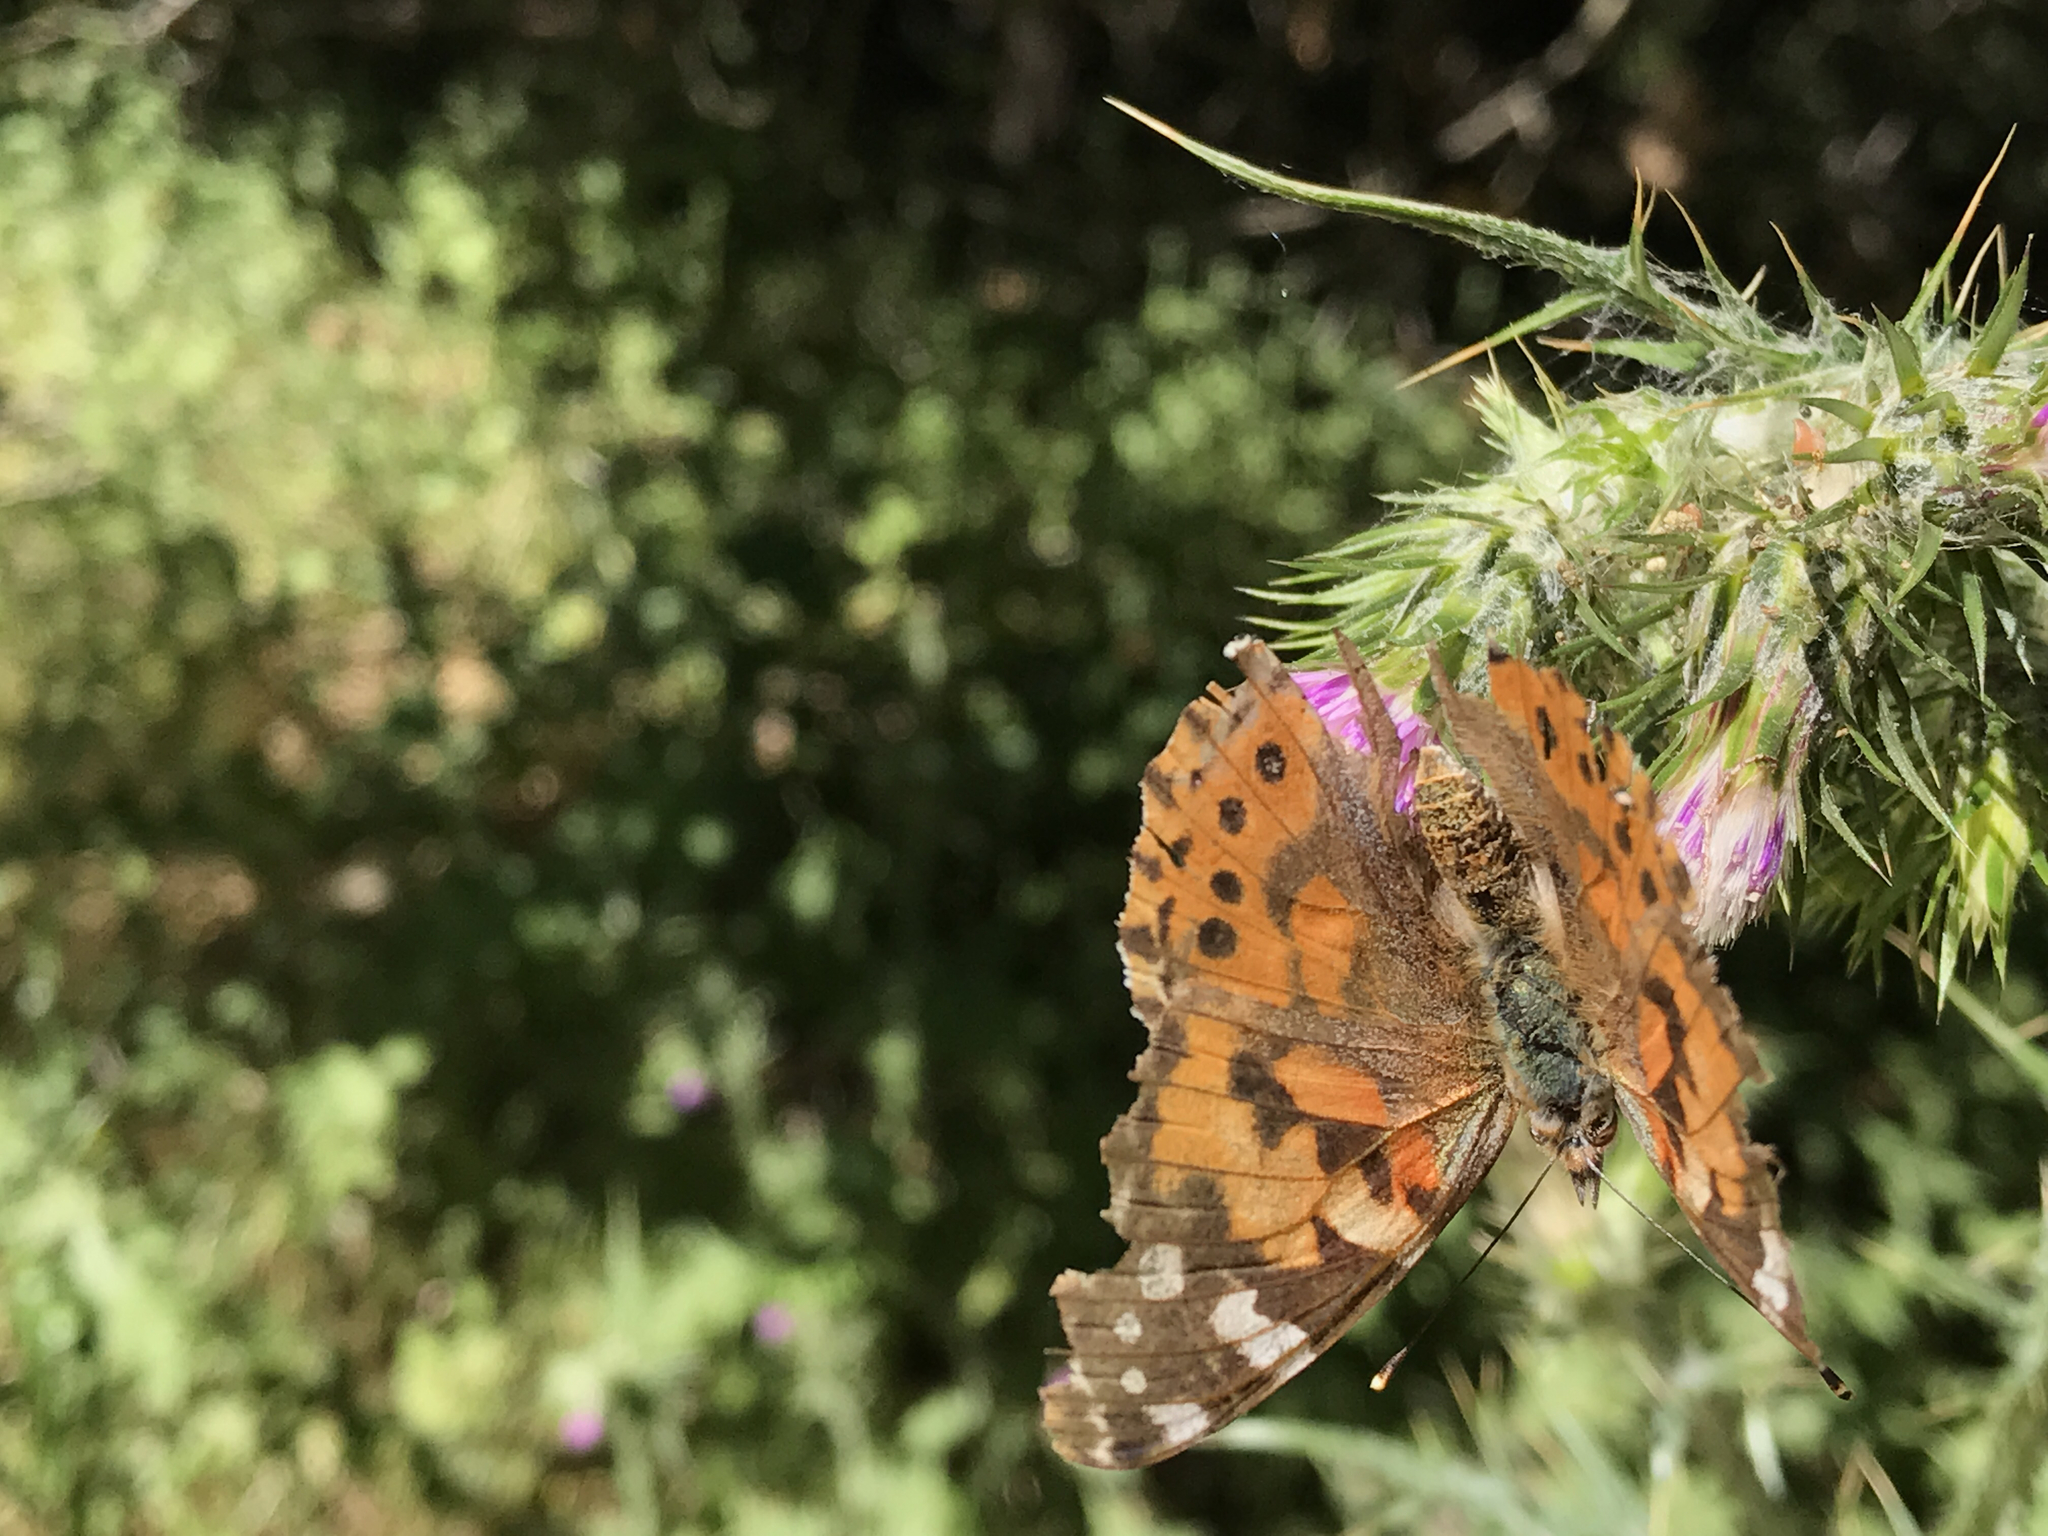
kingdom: Animalia
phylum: Arthropoda
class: Insecta
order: Lepidoptera
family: Nymphalidae
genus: Vanessa
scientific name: Vanessa cardui
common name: Painted lady
